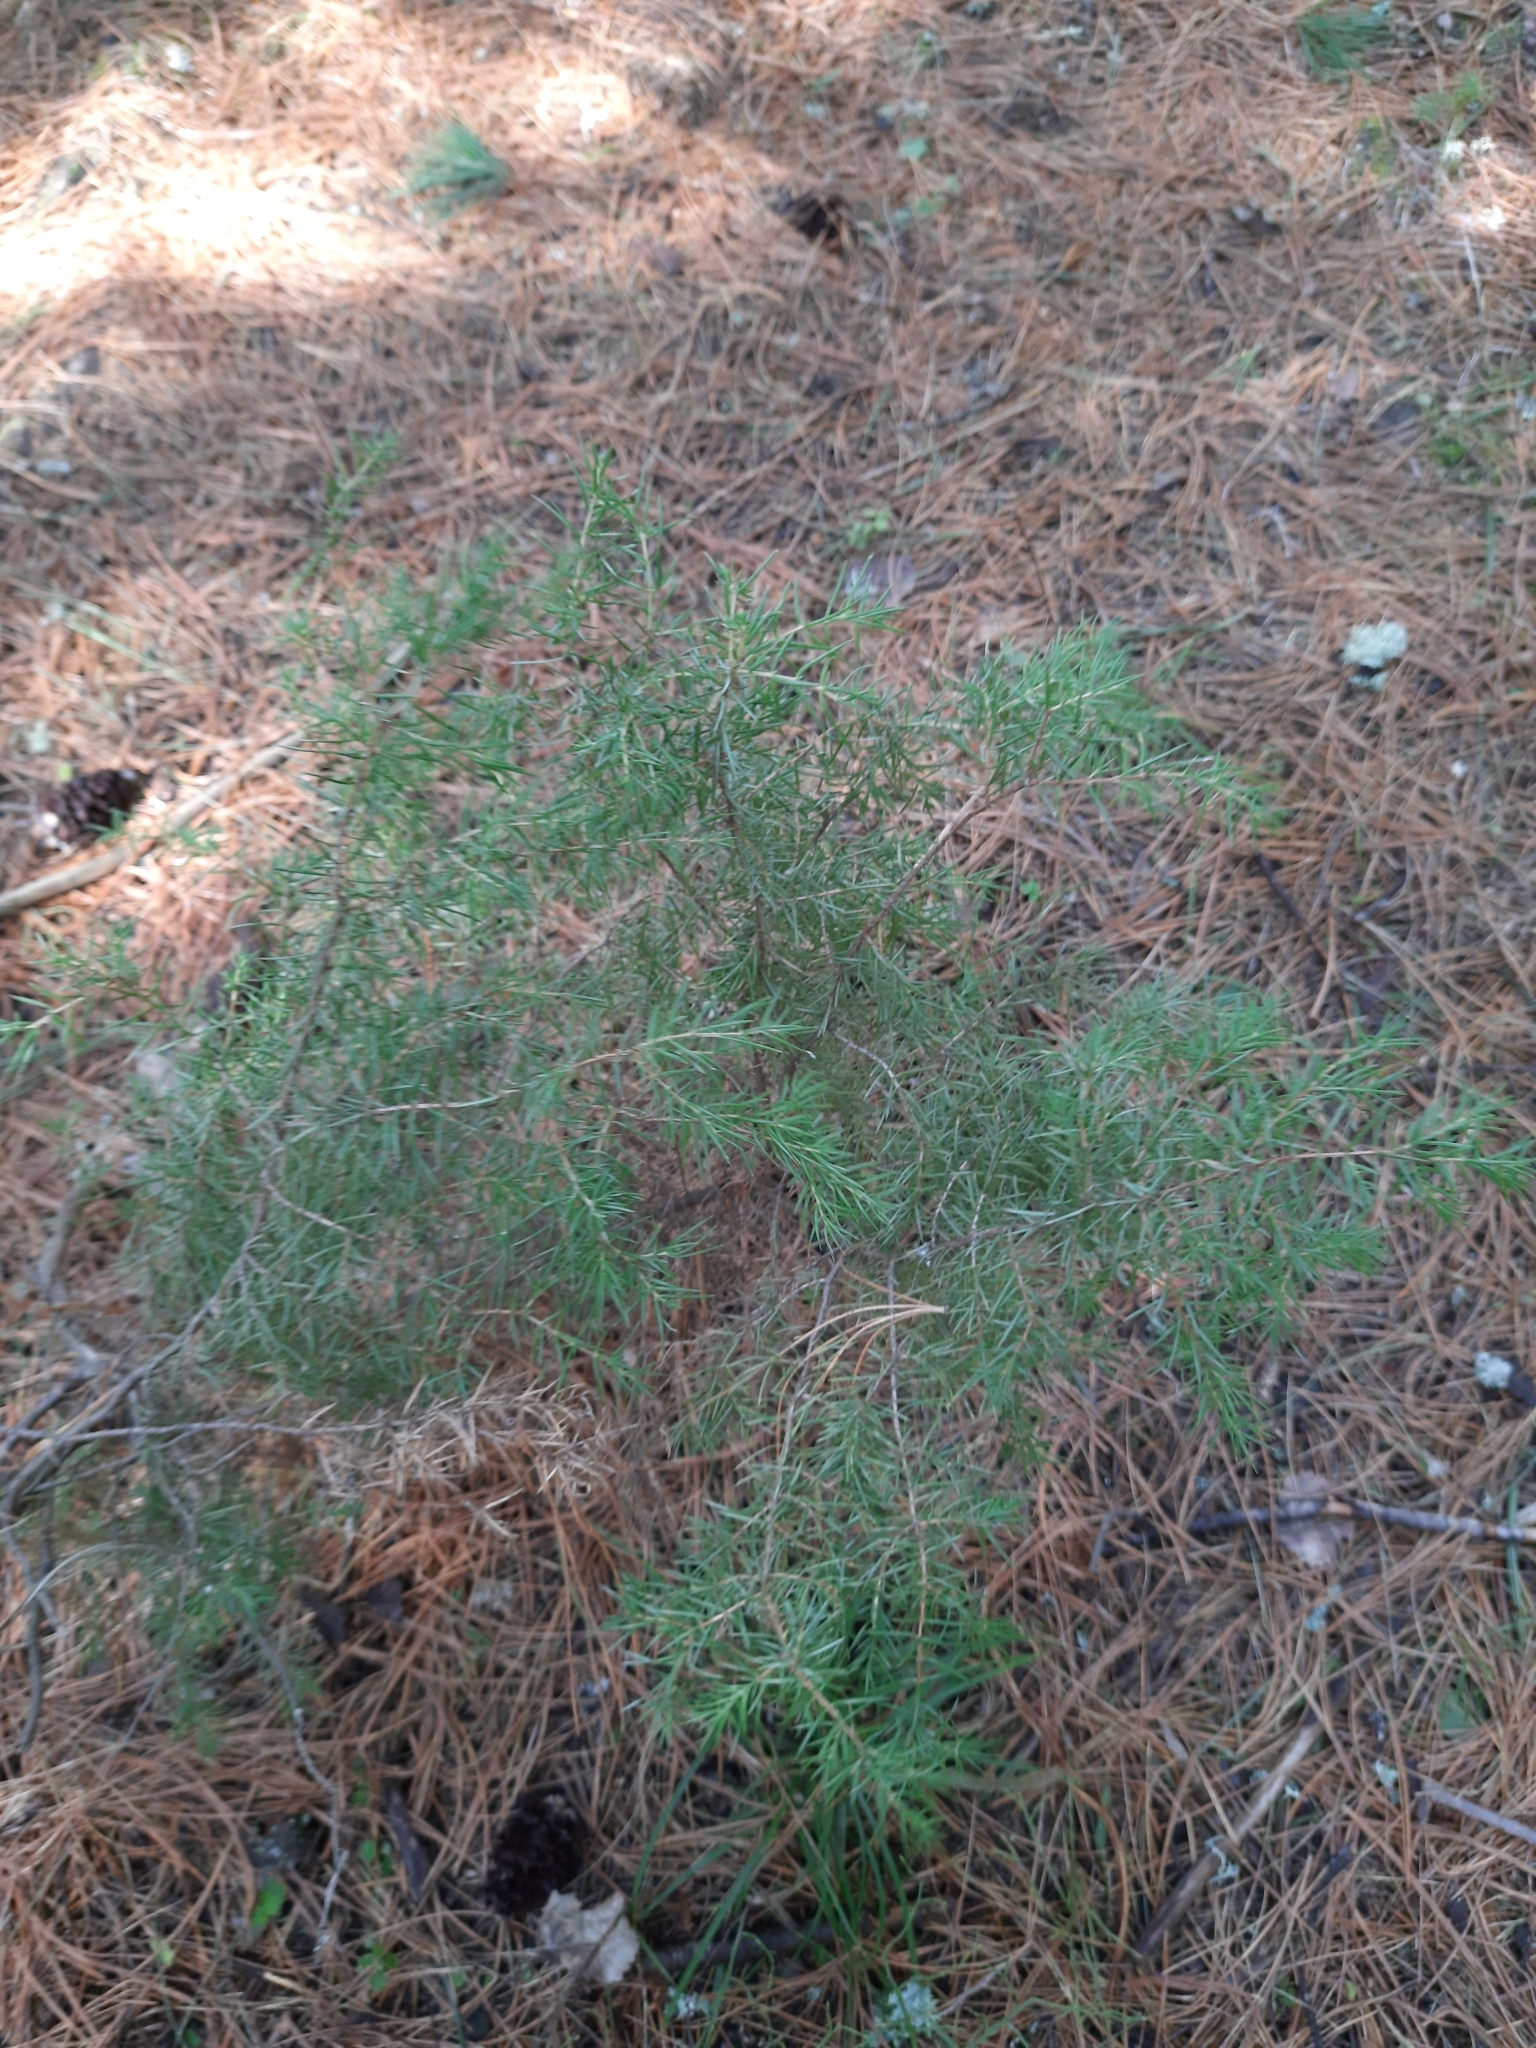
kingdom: Plantae
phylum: Tracheophyta
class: Pinopsida
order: Pinales
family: Cupressaceae
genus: Juniperus
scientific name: Juniperus communis
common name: Common juniper
